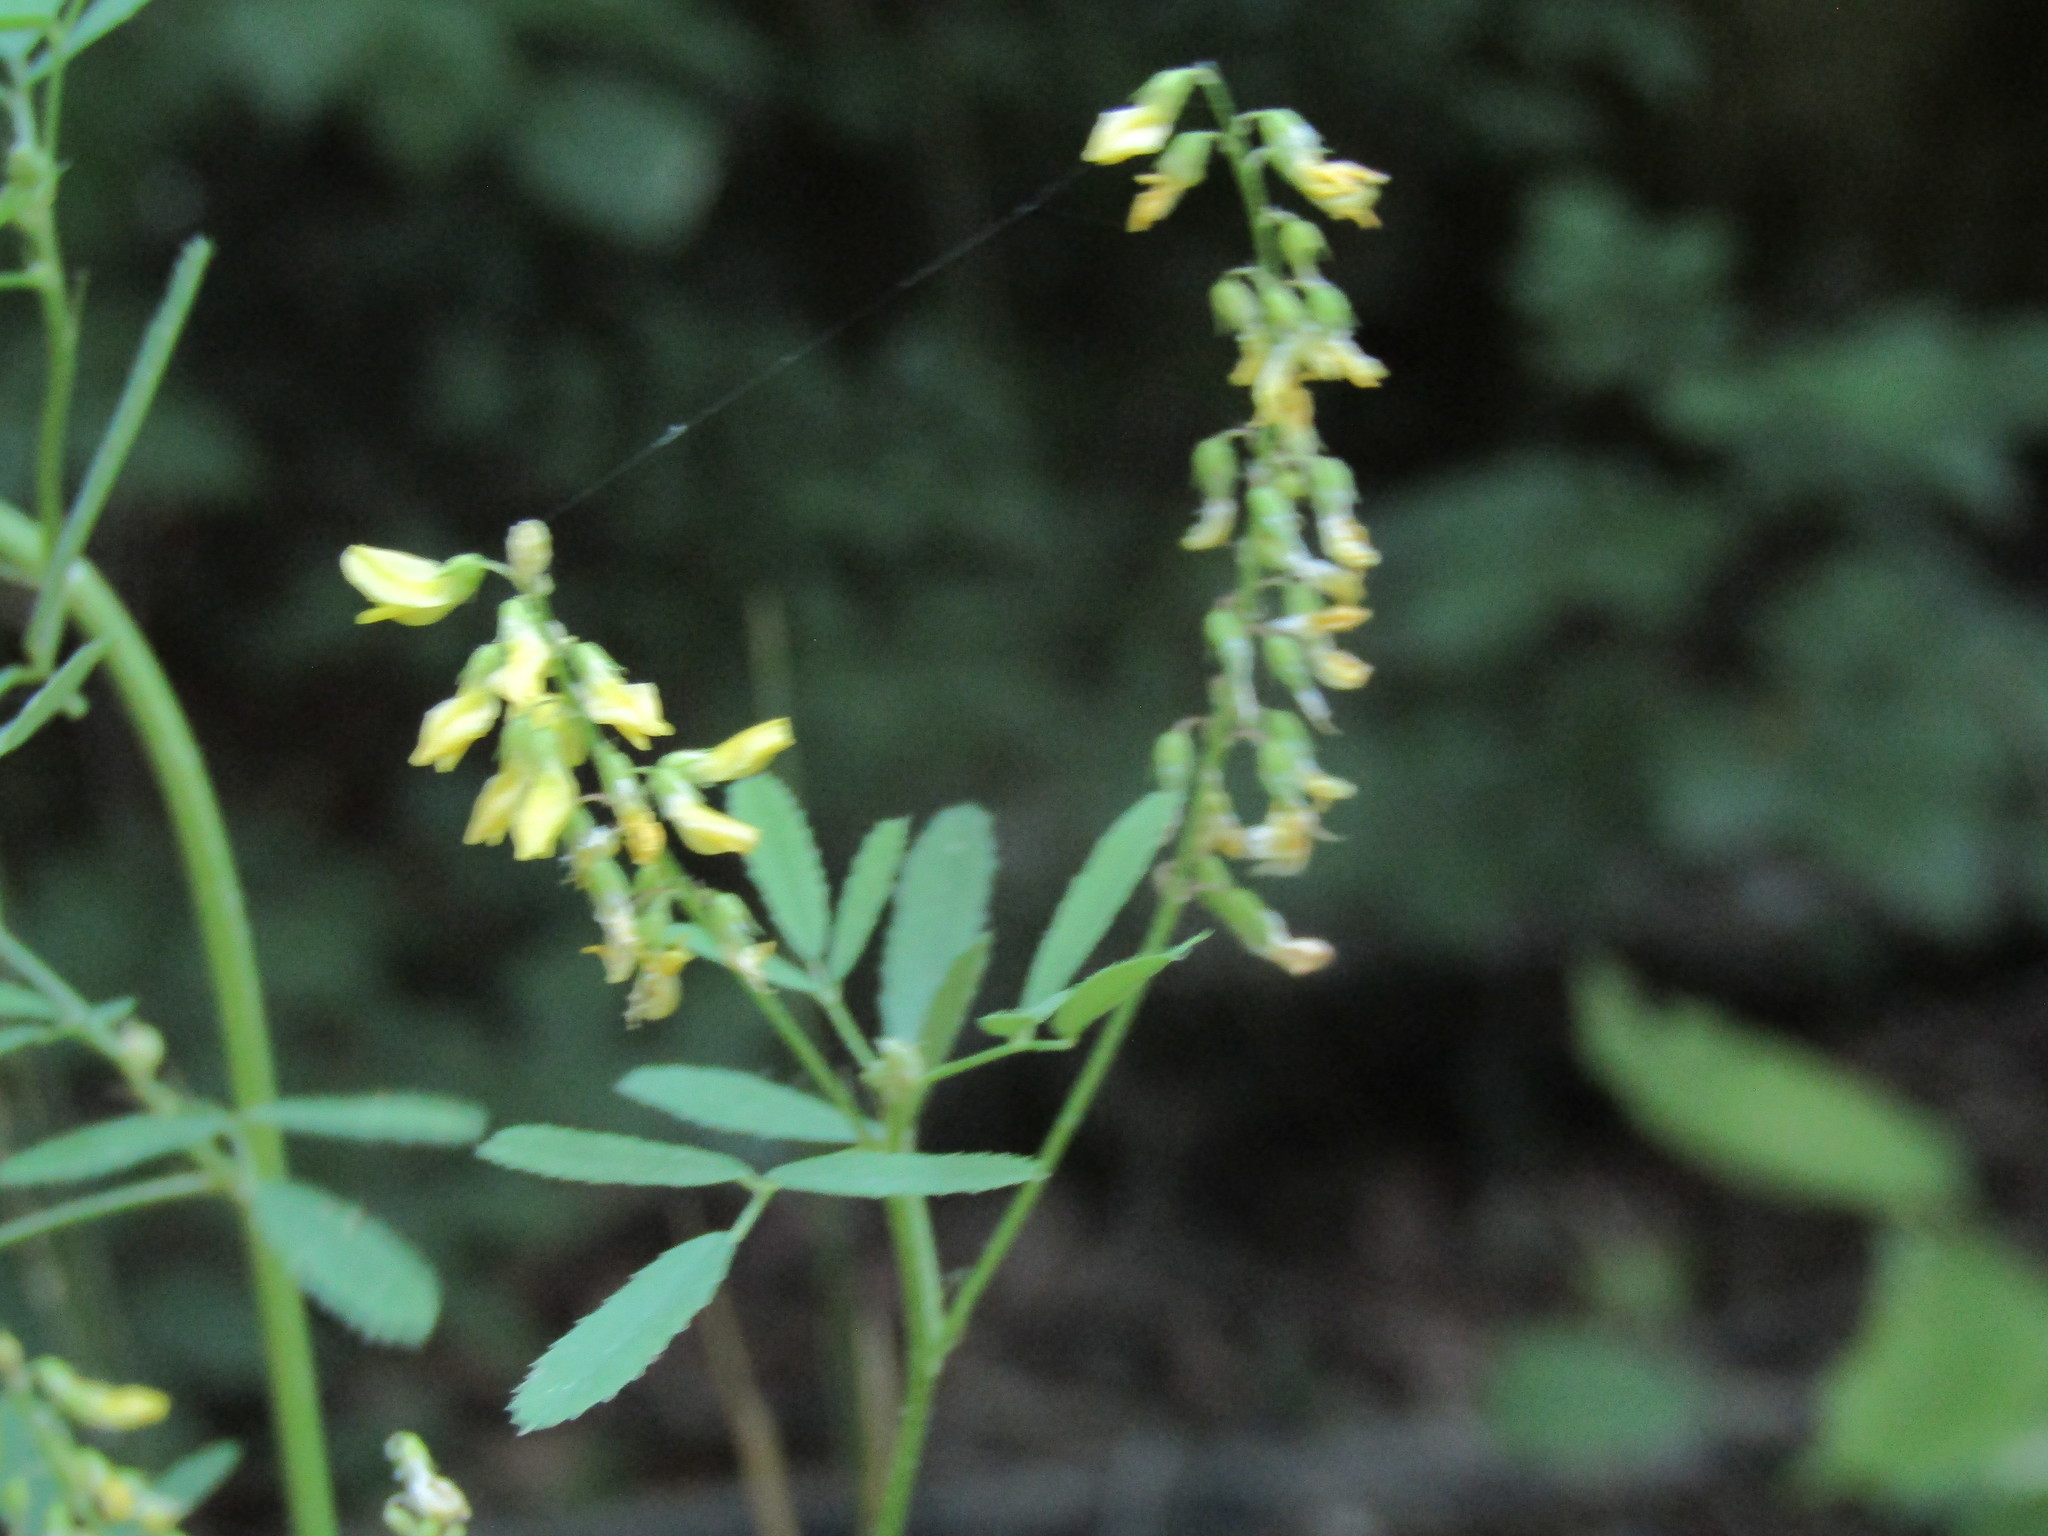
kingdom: Plantae
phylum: Tracheophyta
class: Magnoliopsida
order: Fabales
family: Fabaceae
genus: Melilotus
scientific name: Melilotus officinalis
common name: Sweetclover
